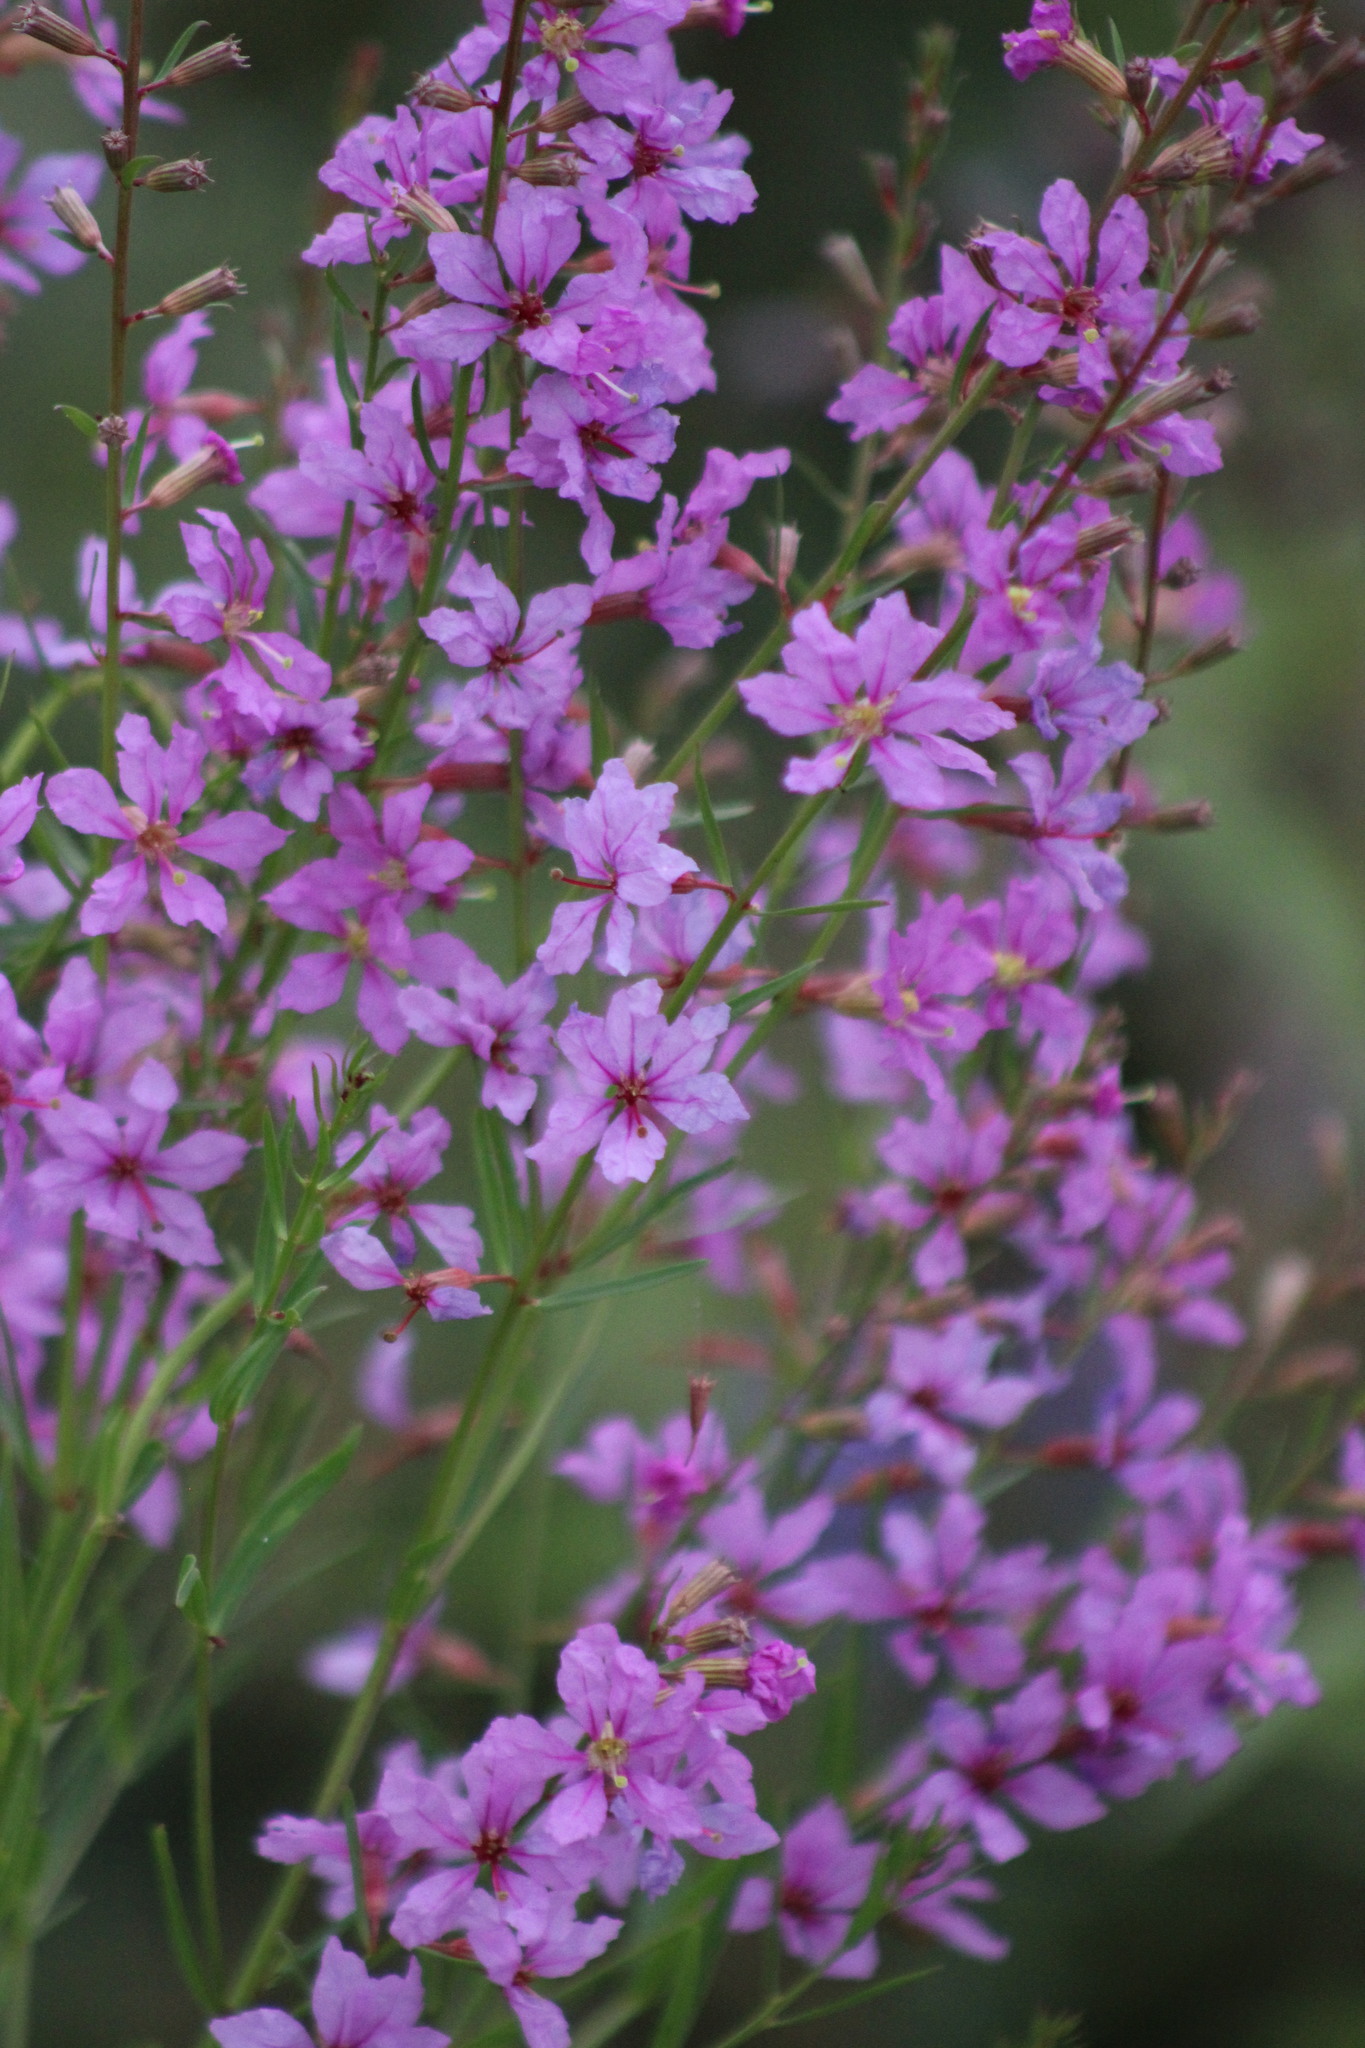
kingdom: Plantae
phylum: Tracheophyta
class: Magnoliopsida
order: Myrtales
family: Lythraceae
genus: Lythrum
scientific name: Lythrum virgatum
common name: European wand loosestrife
